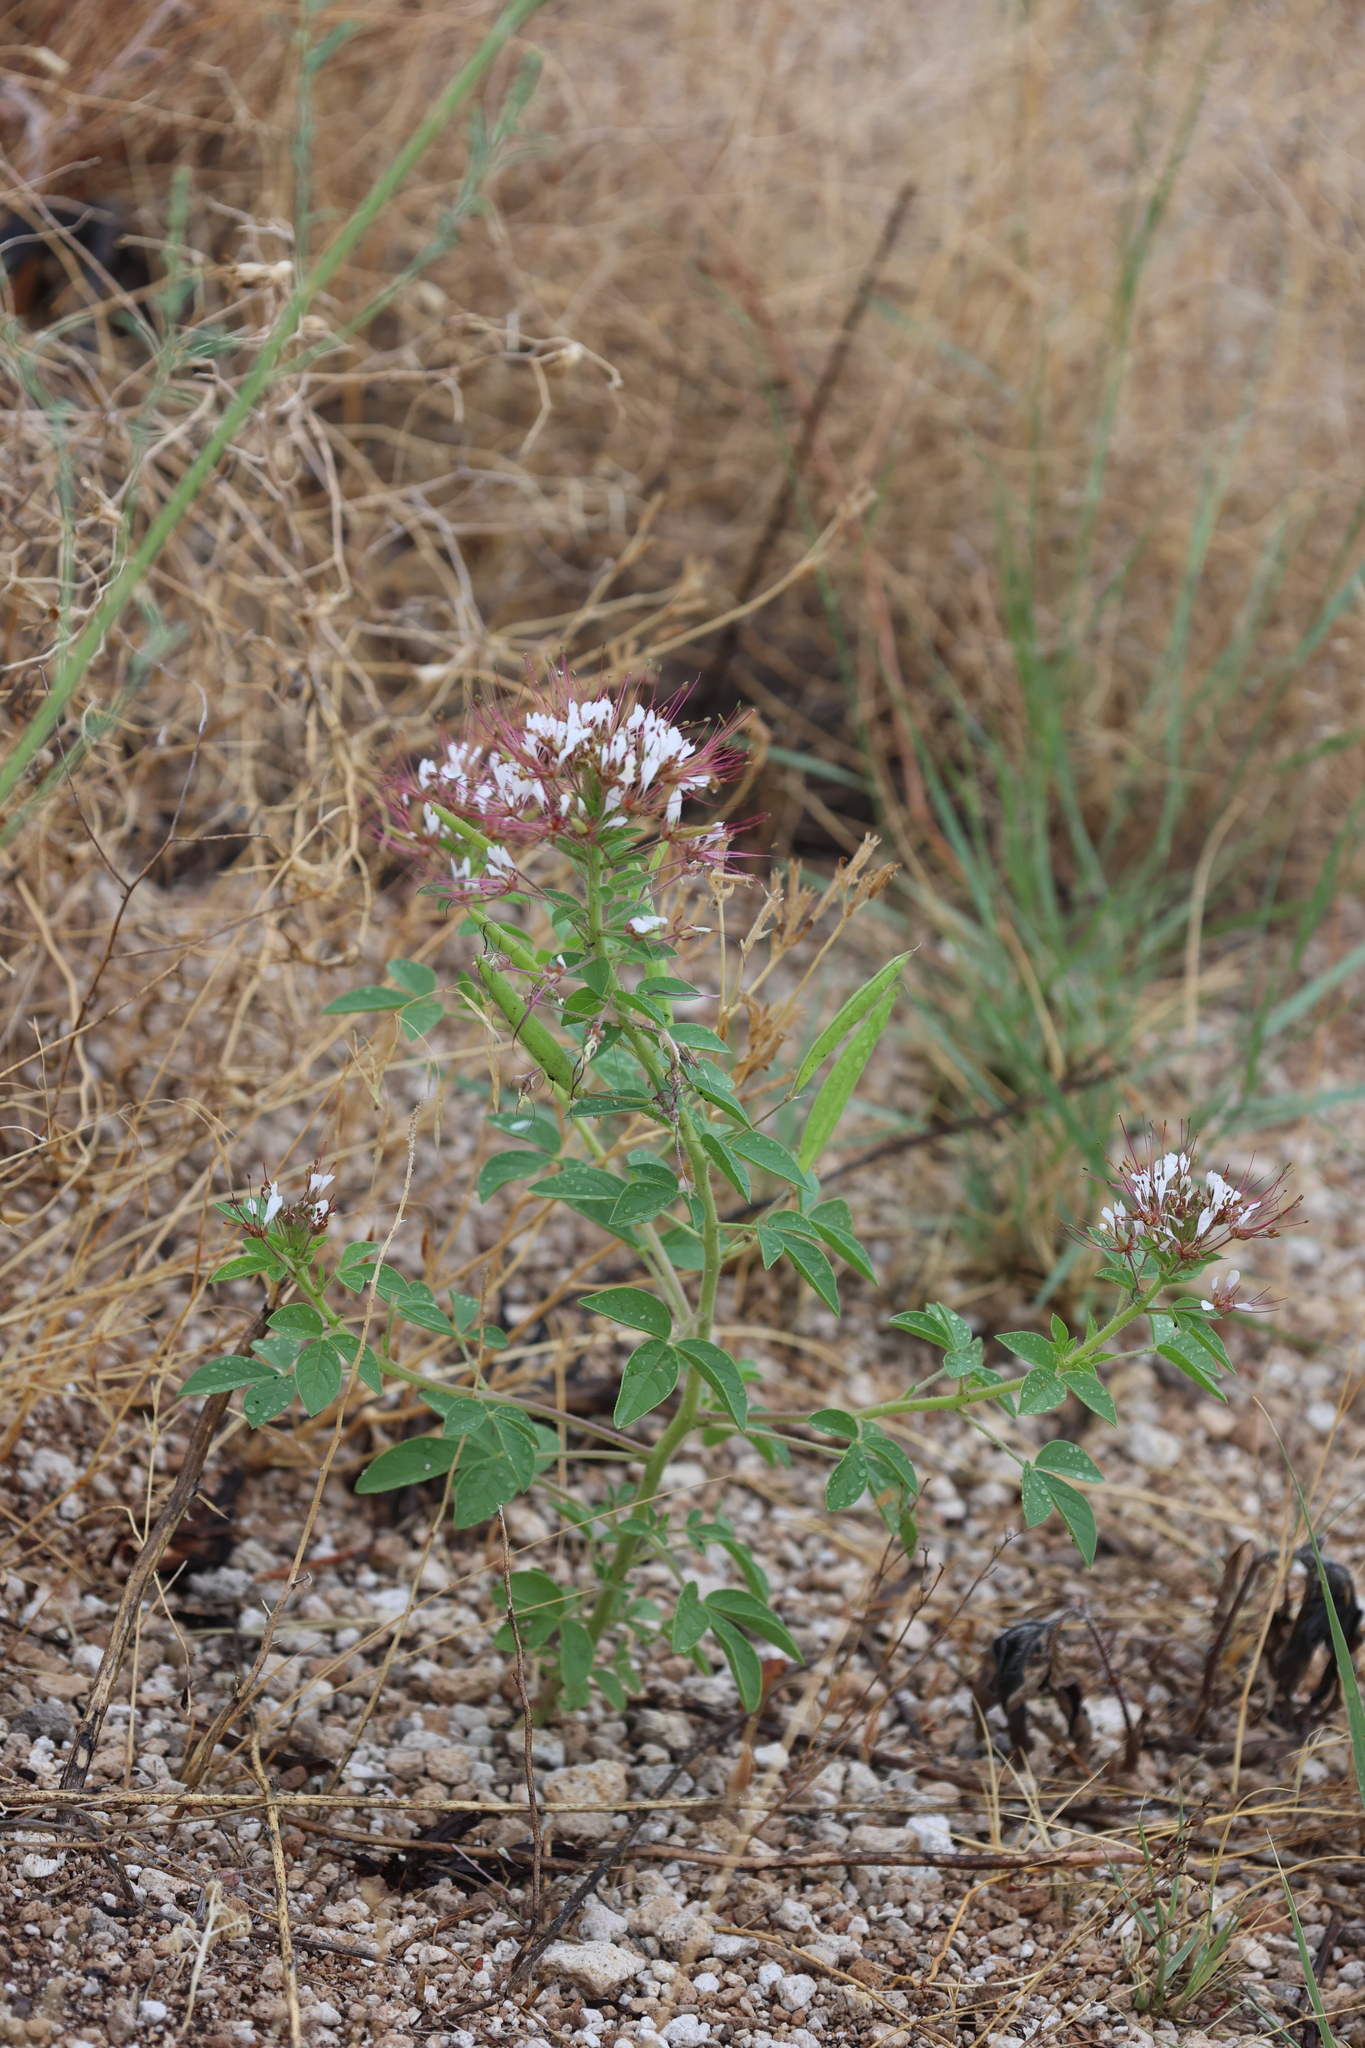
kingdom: Plantae
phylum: Tracheophyta
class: Magnoliopsida
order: Brassicales
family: Cleomaceae
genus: Polanisia
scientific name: Polanisia dodecandra
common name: Clammyweed
